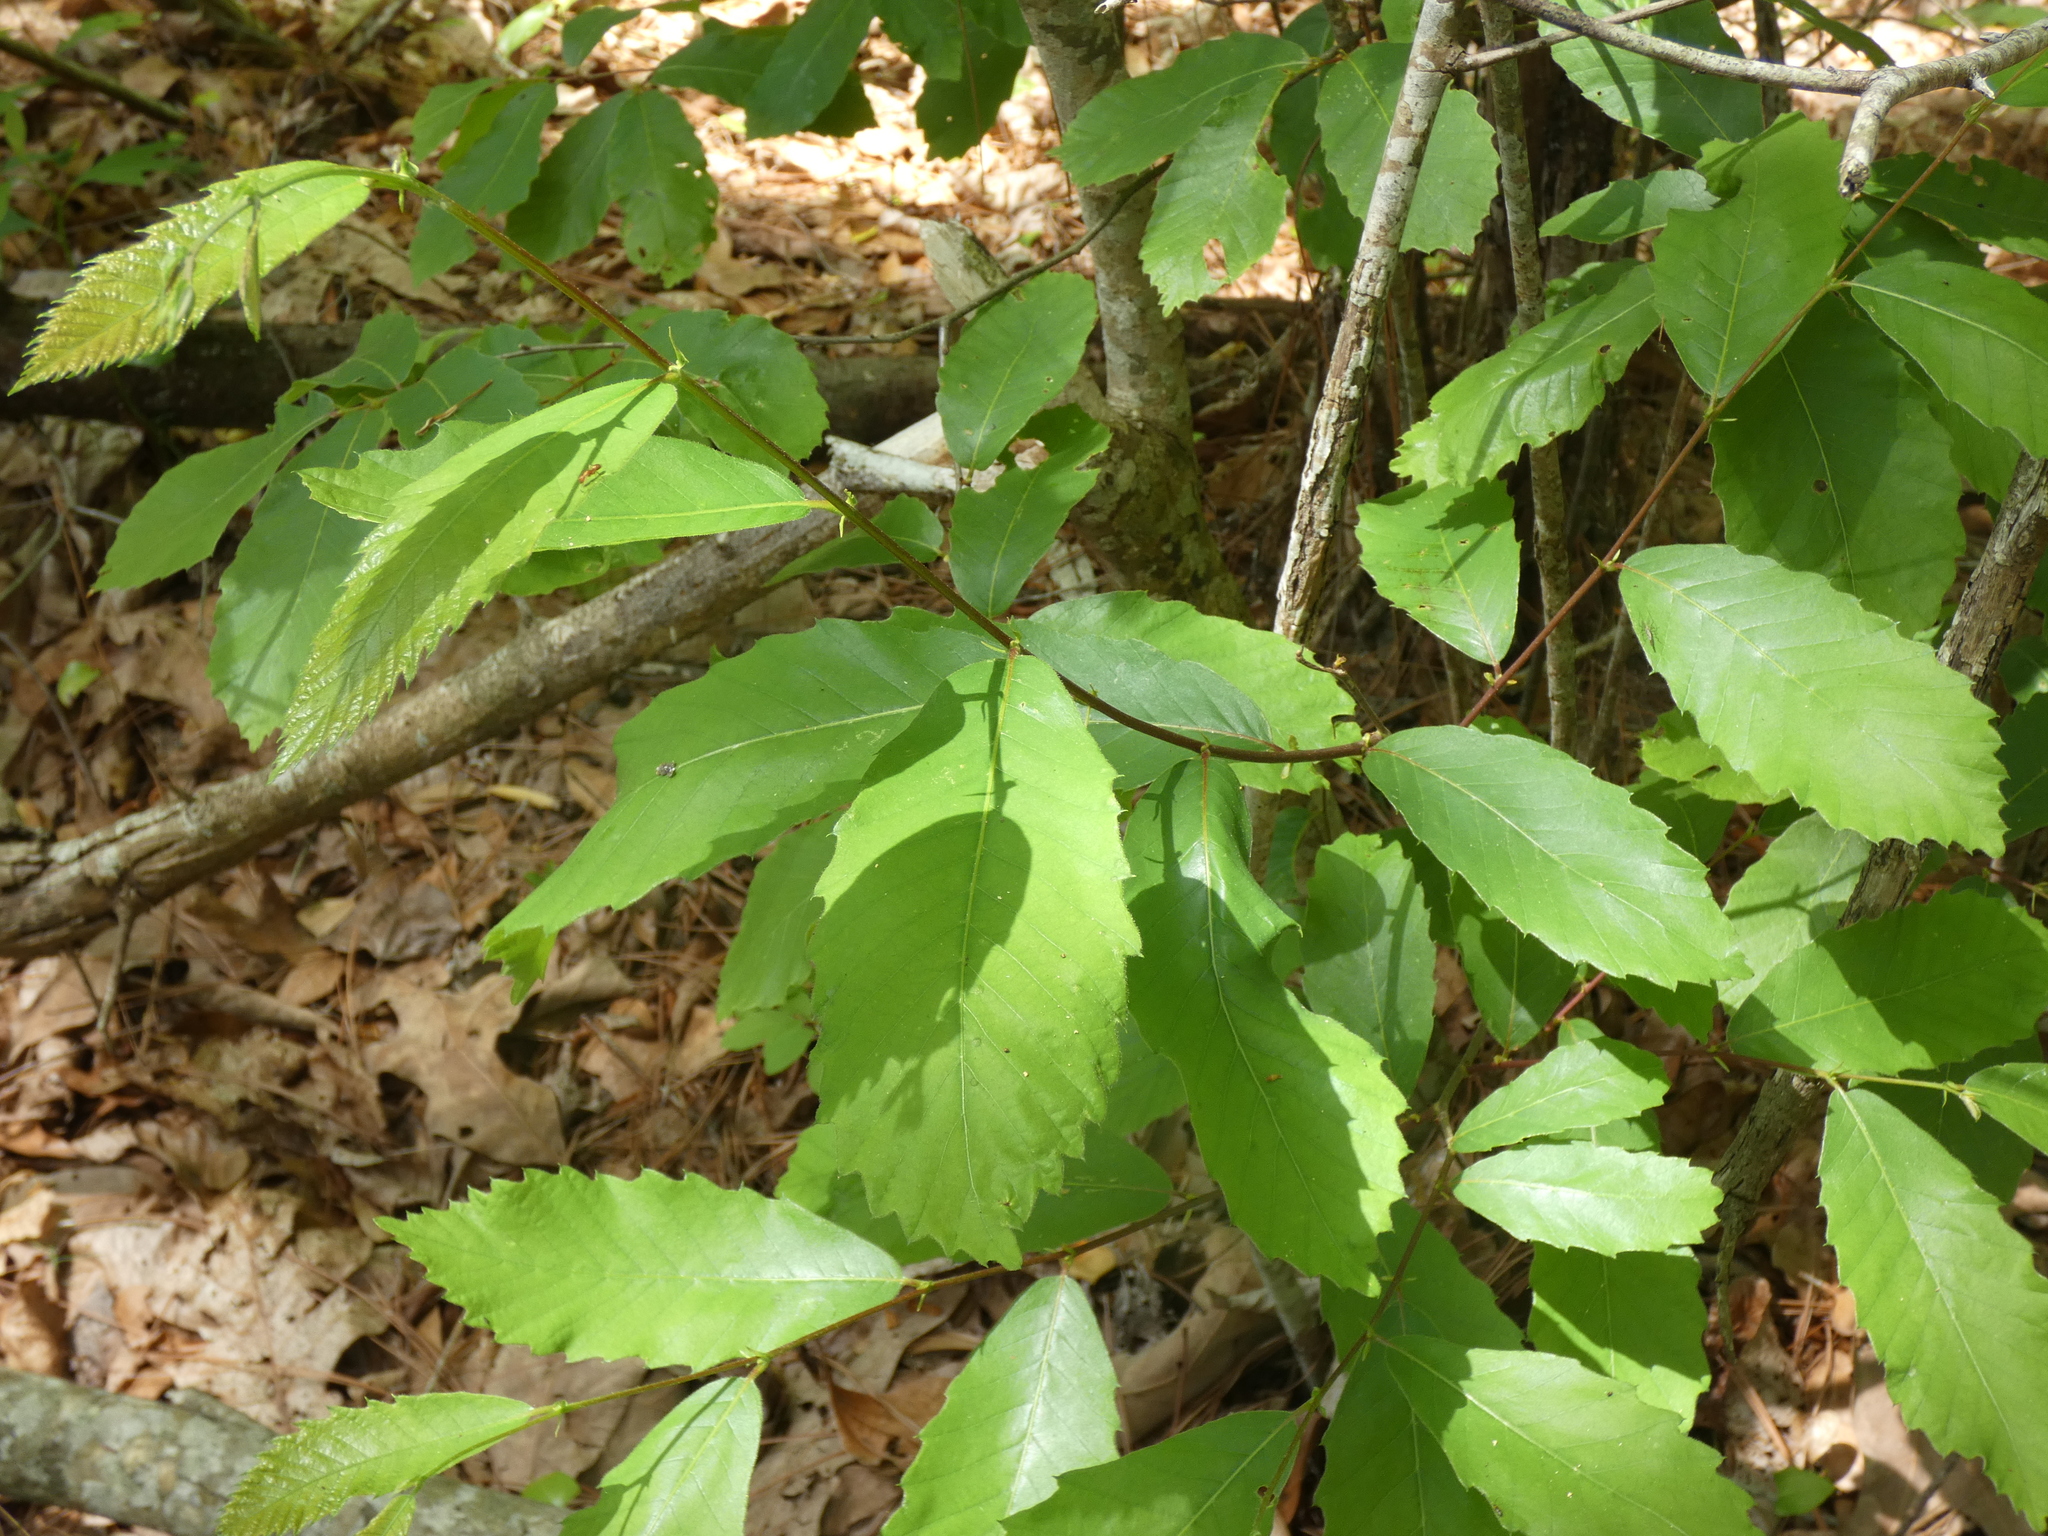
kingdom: Plantae
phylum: Tracheophyta
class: Magnoliopsida
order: Fagales
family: Fagaceae
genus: Castanea
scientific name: Castanea pumila
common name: Chinkapin
